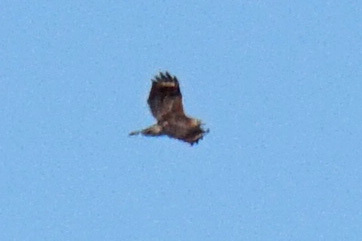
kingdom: Animalia
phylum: Chordata
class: Aves
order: Accipitriformes
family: Accipitridae
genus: Buteo
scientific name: Buteo lineatus
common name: Red-shouldered hawk
